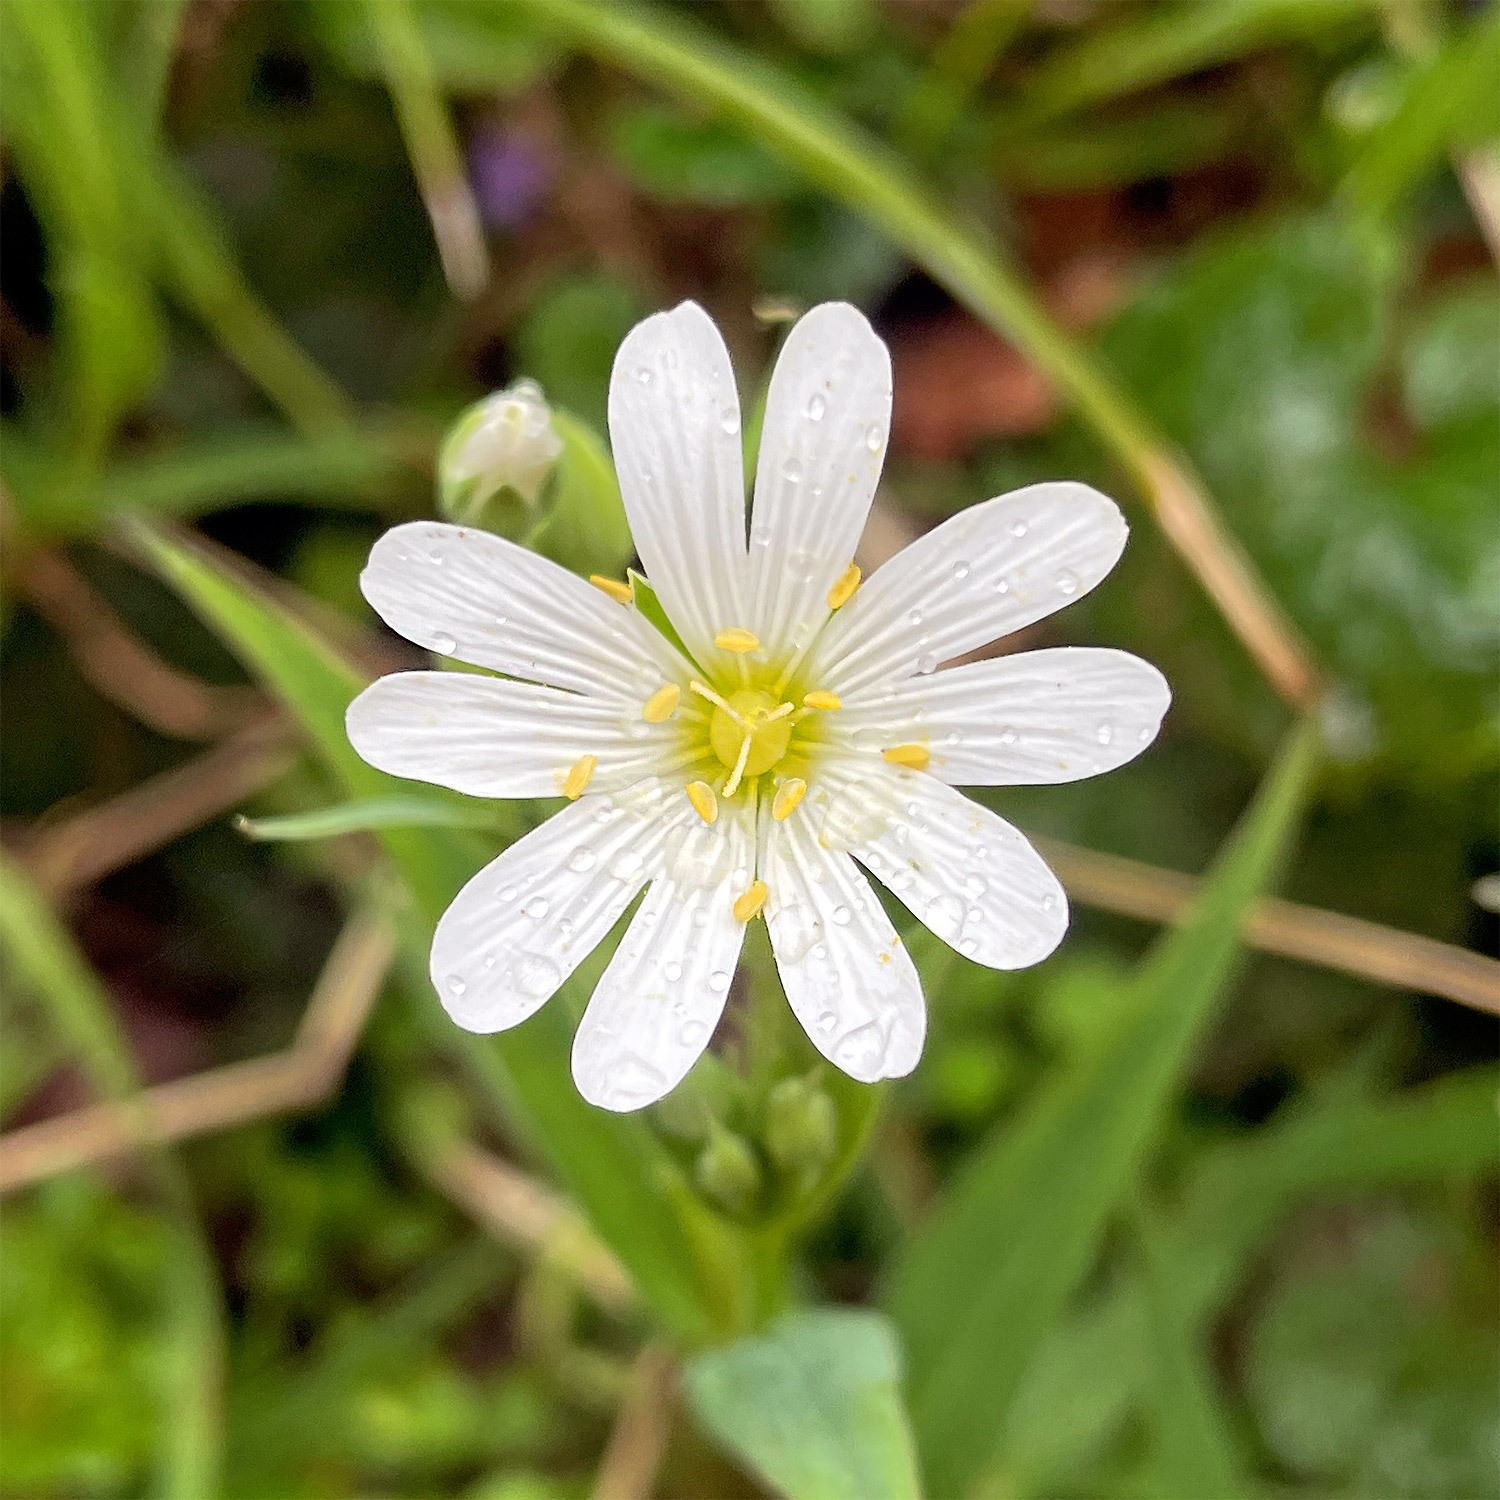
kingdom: Plantae
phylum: Tracheophyta
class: Magnoliopsida
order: Caryophyllales
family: Caryophyllaceae
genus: Rabelera
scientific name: Rabelera holostea
